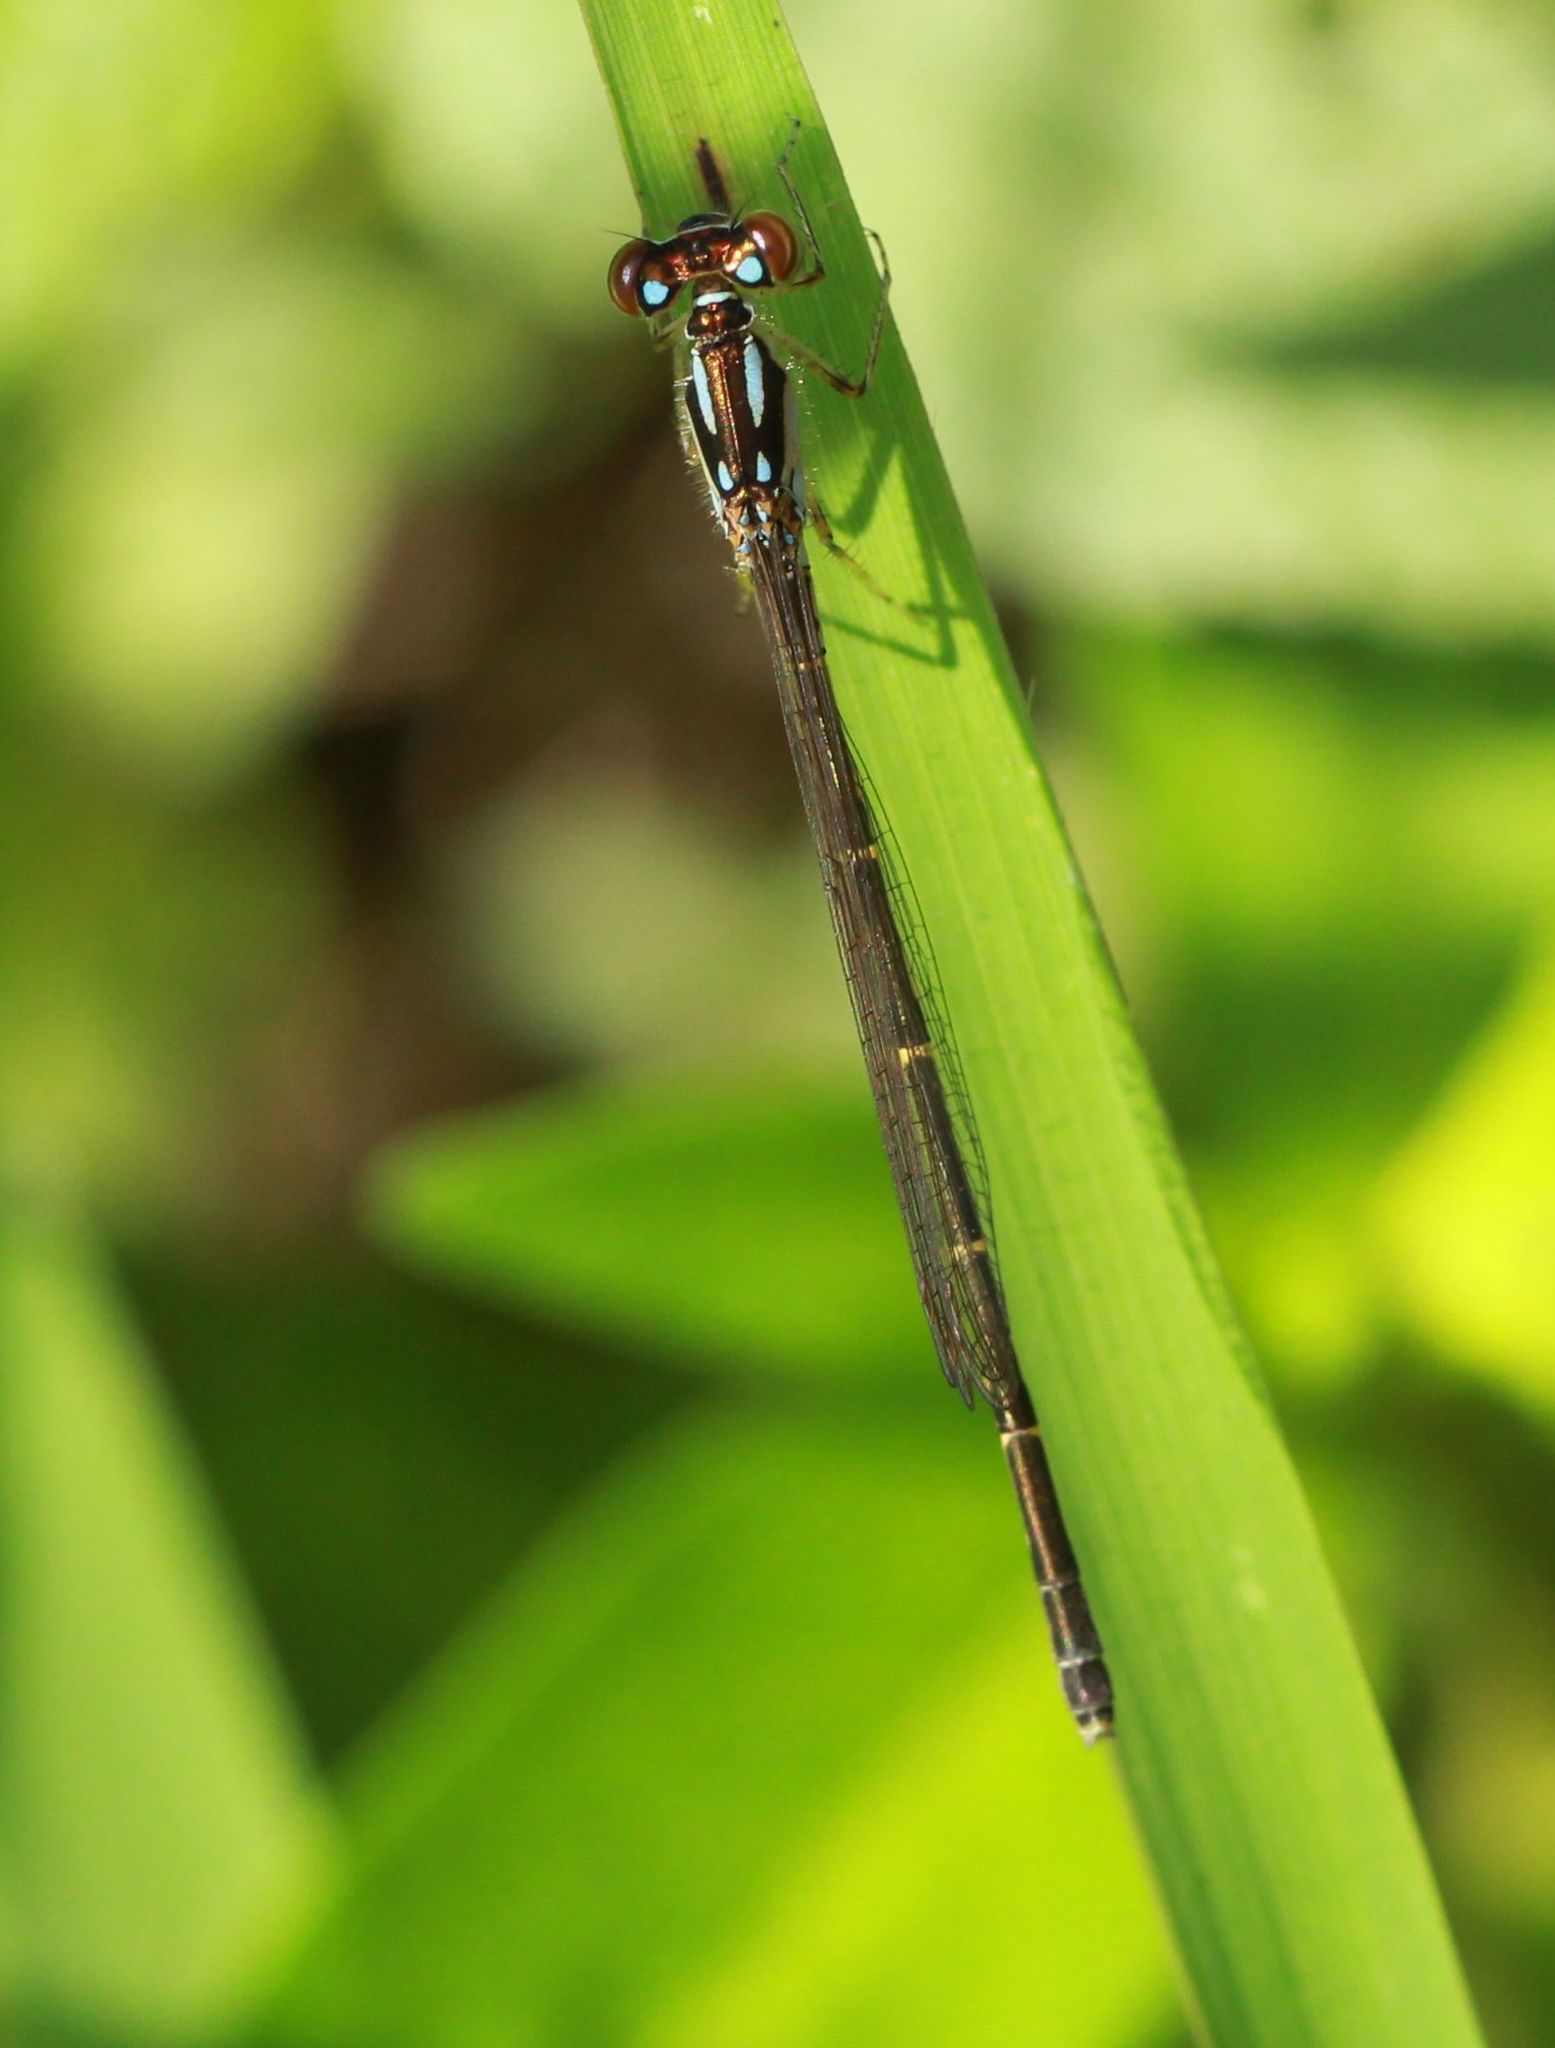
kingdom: Animalia
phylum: Arthropoda
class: Insecta
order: Odonata
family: Coenagrionidae
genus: Ischnura
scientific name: Ischnura posita
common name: Fragile forktail
